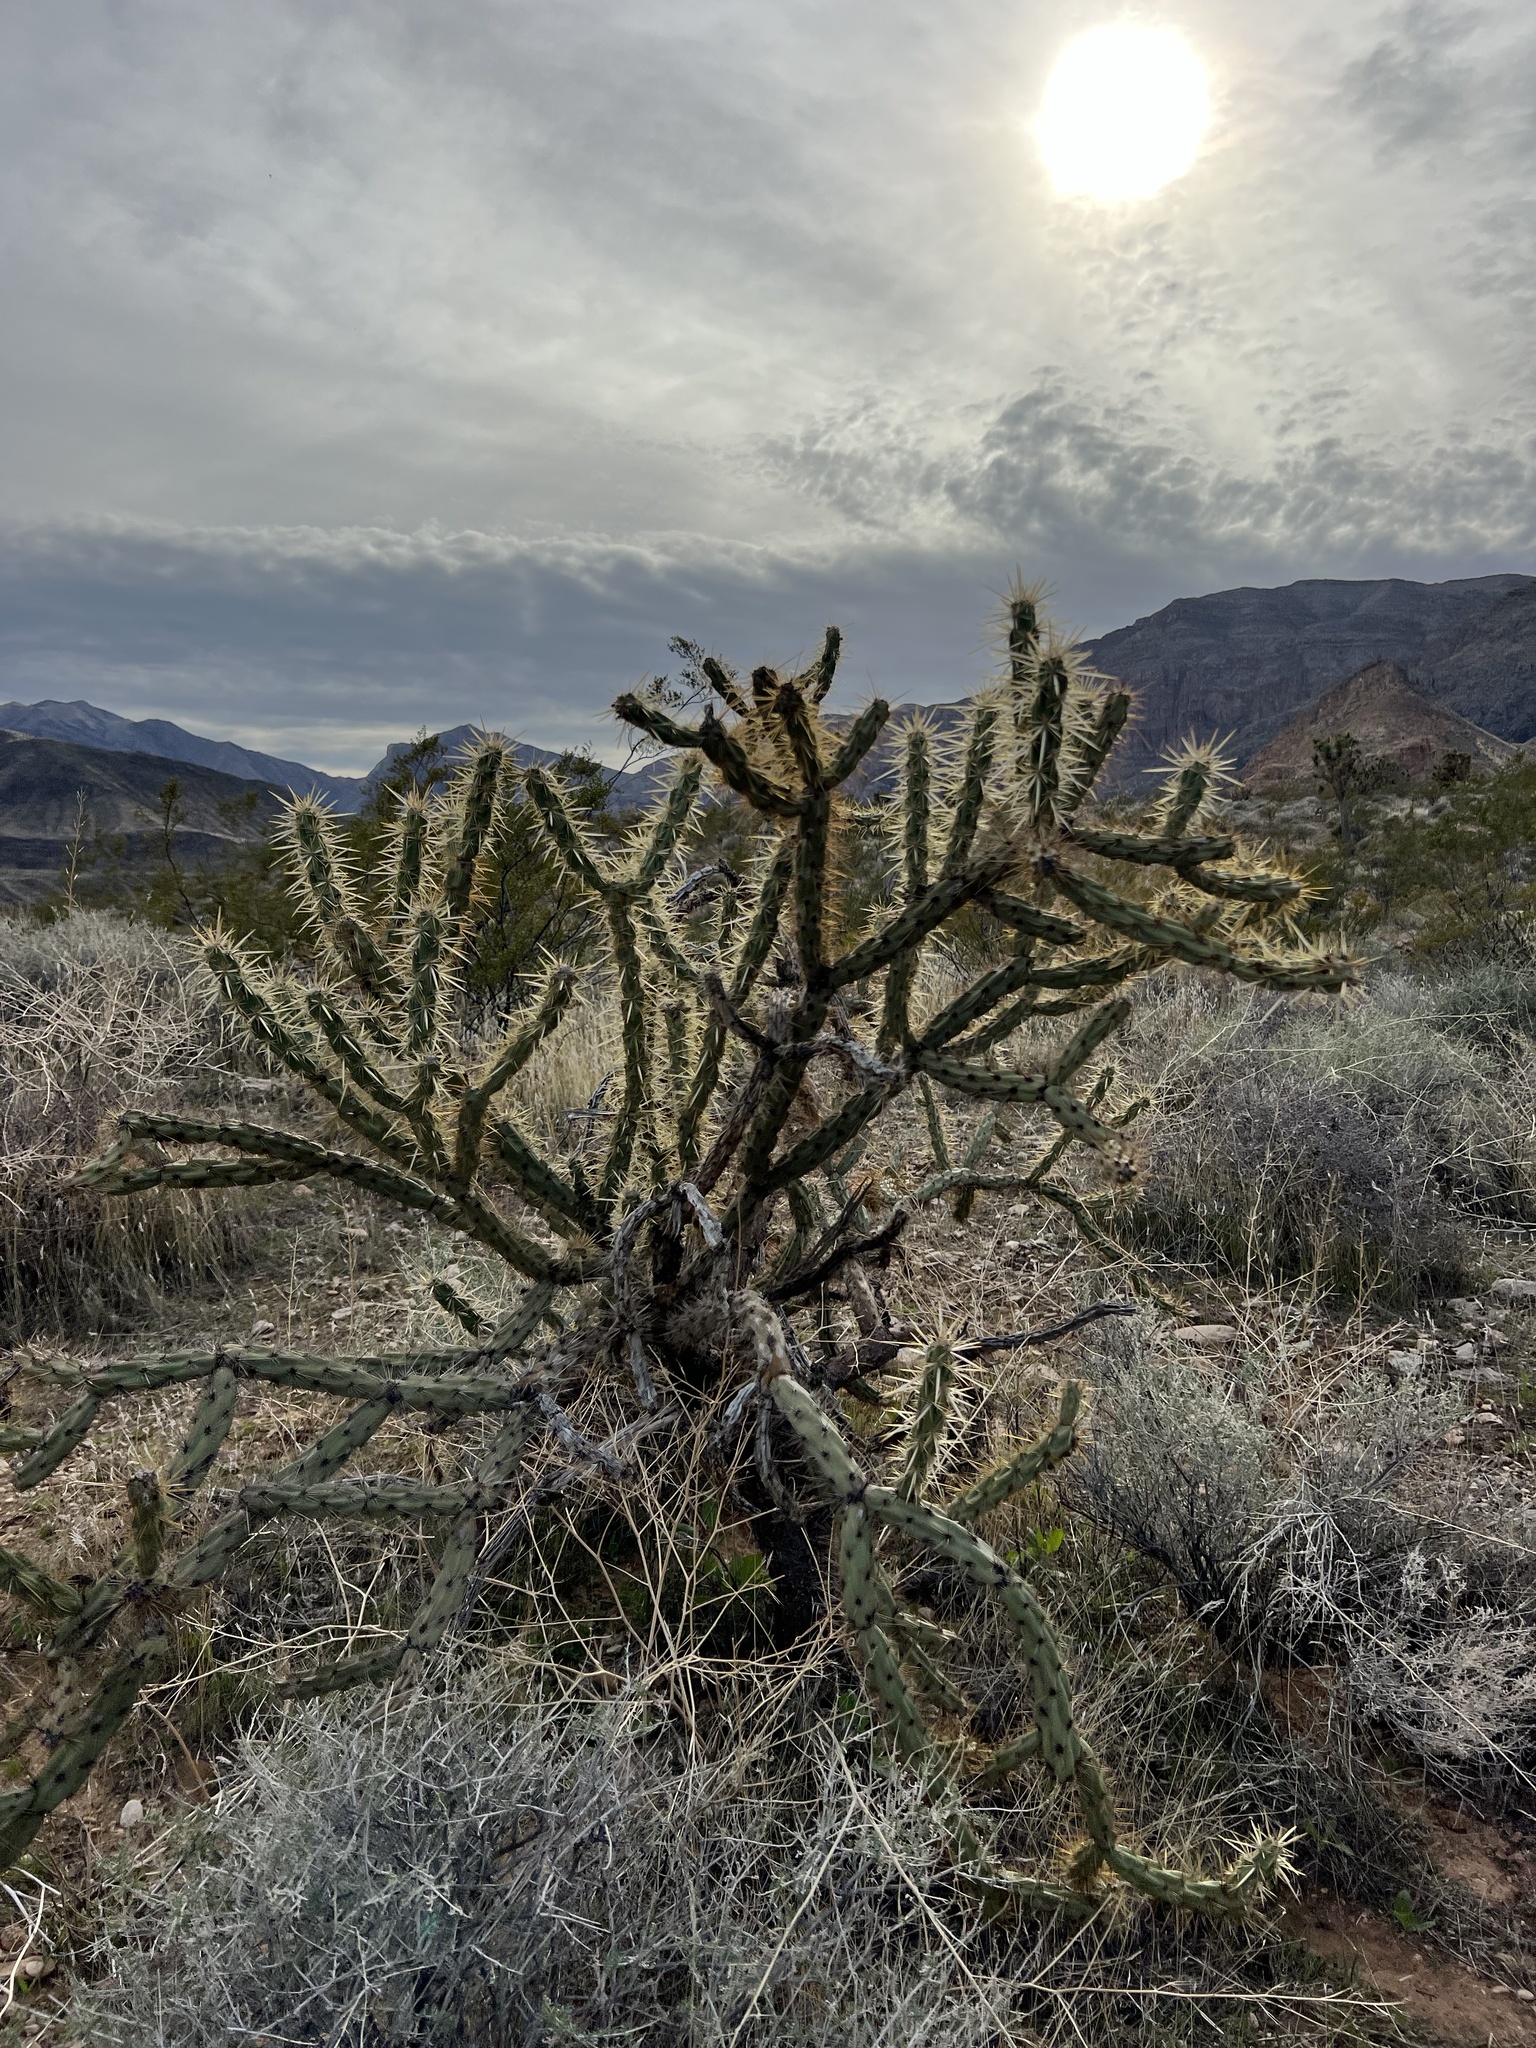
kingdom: Plantae
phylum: Tracheophyta
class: Magnoliopsida
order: Caryophyllales
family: Cactaceae
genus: Cylindropuntia
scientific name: Cylindropuntia acanthocarpa
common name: Buckhorn cholla
